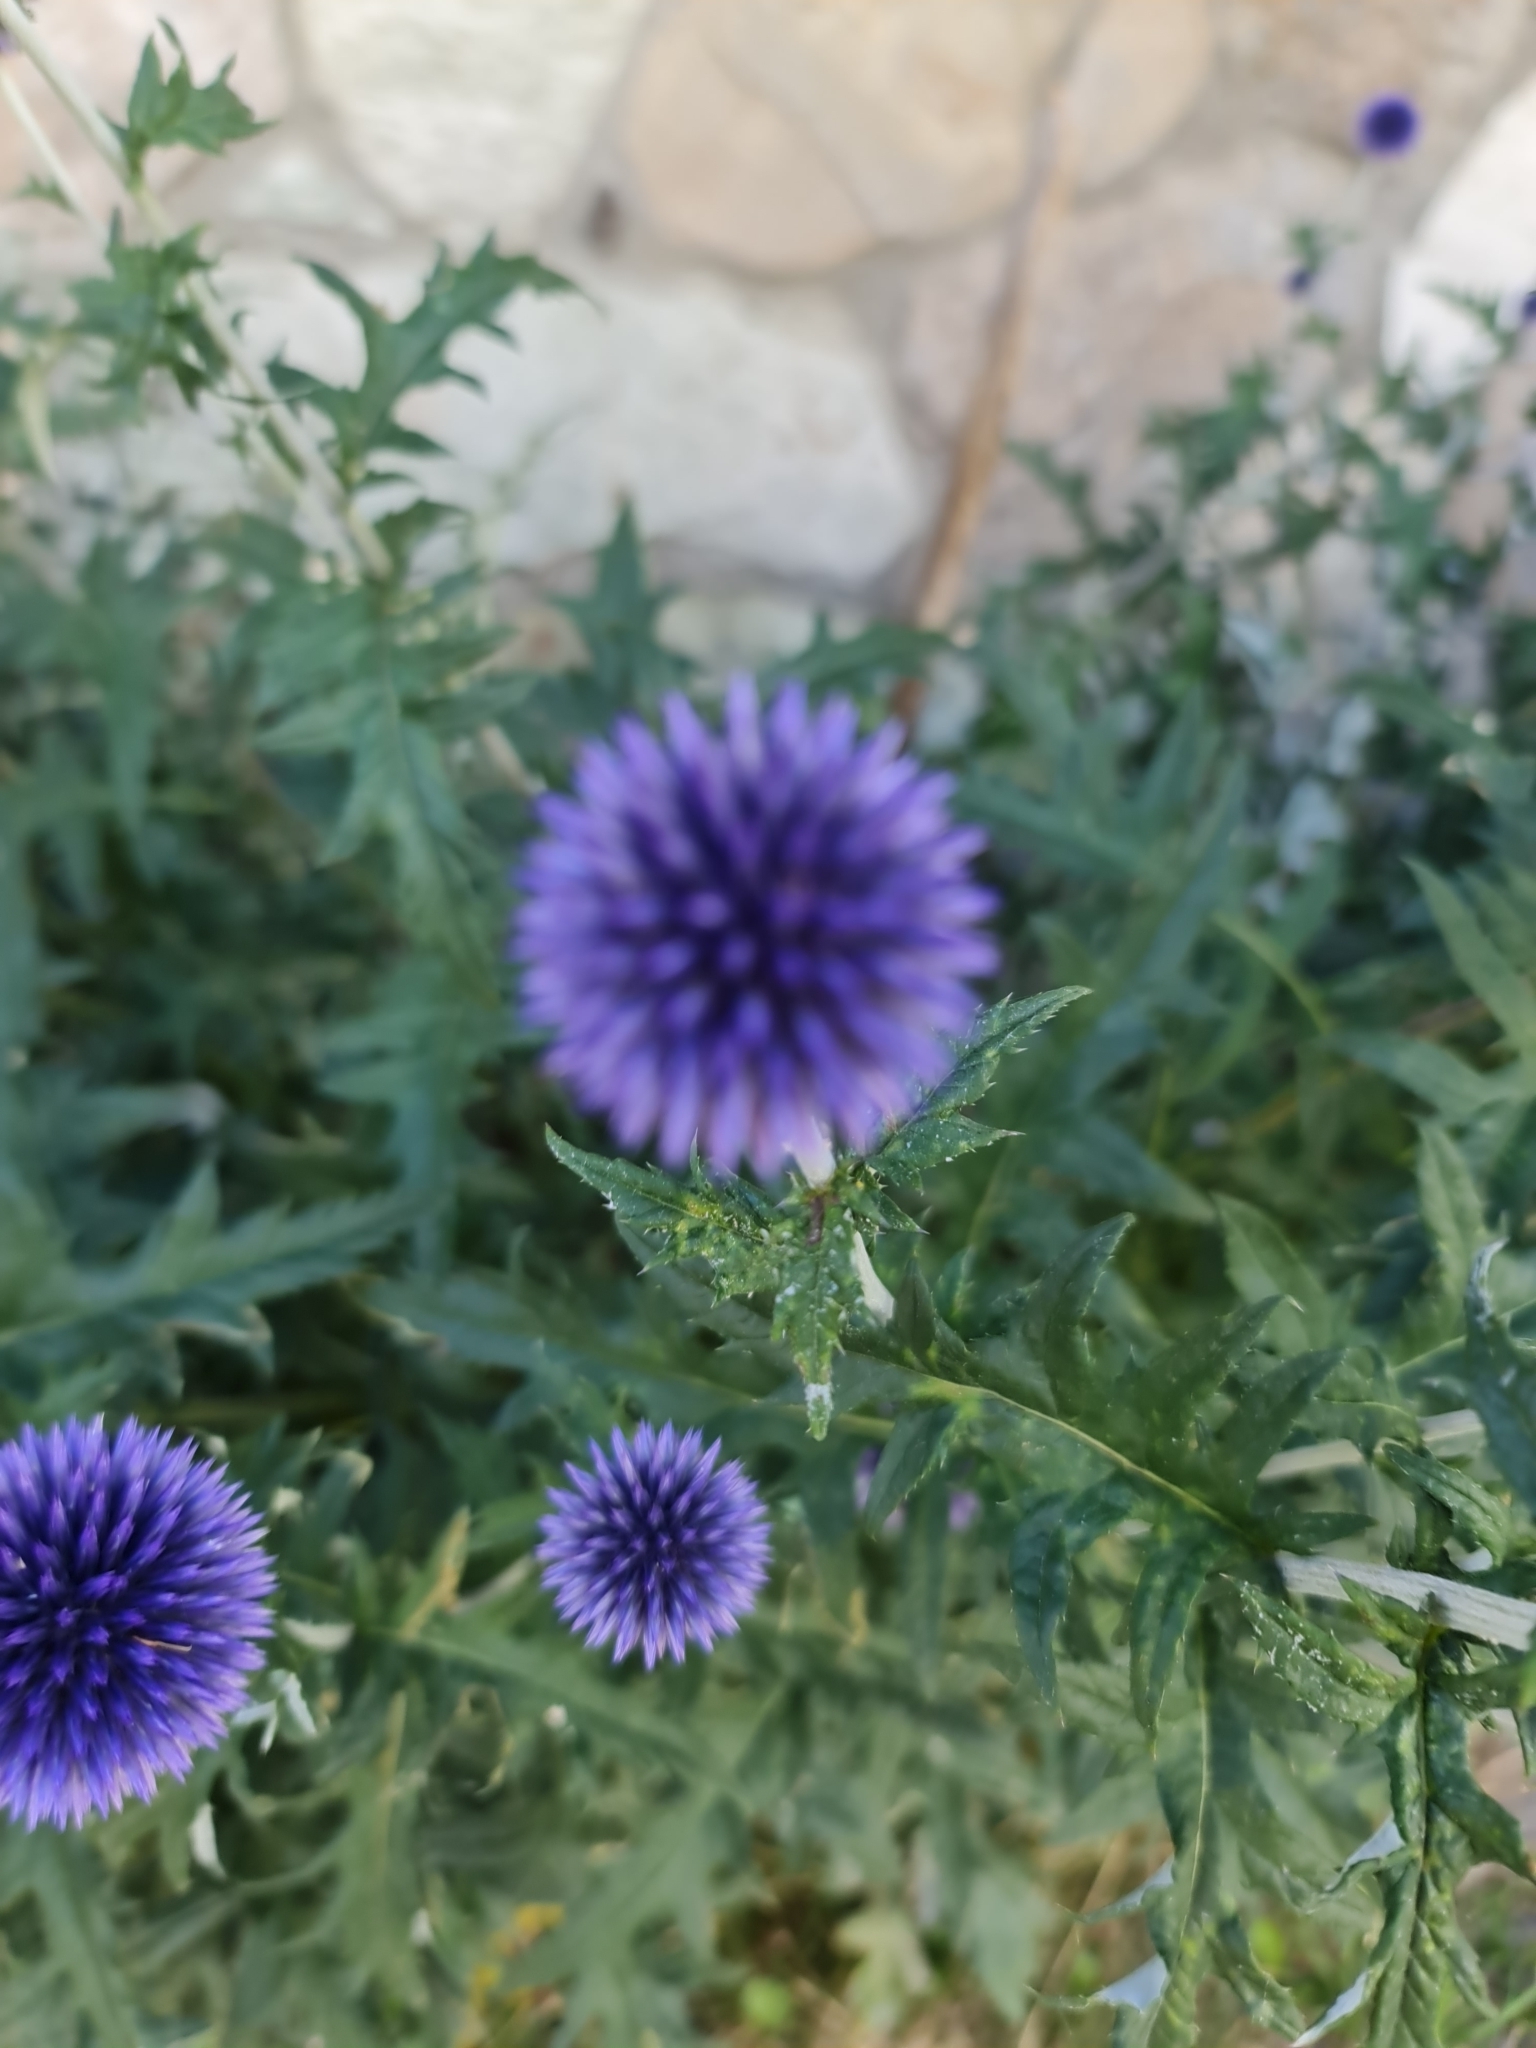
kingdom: Plantae
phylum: Tracheophyta
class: Magnoliopsida
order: Asterales
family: Asteraceae
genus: Echinops
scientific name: Echinops bannaticus
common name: Blue globe-thistle
